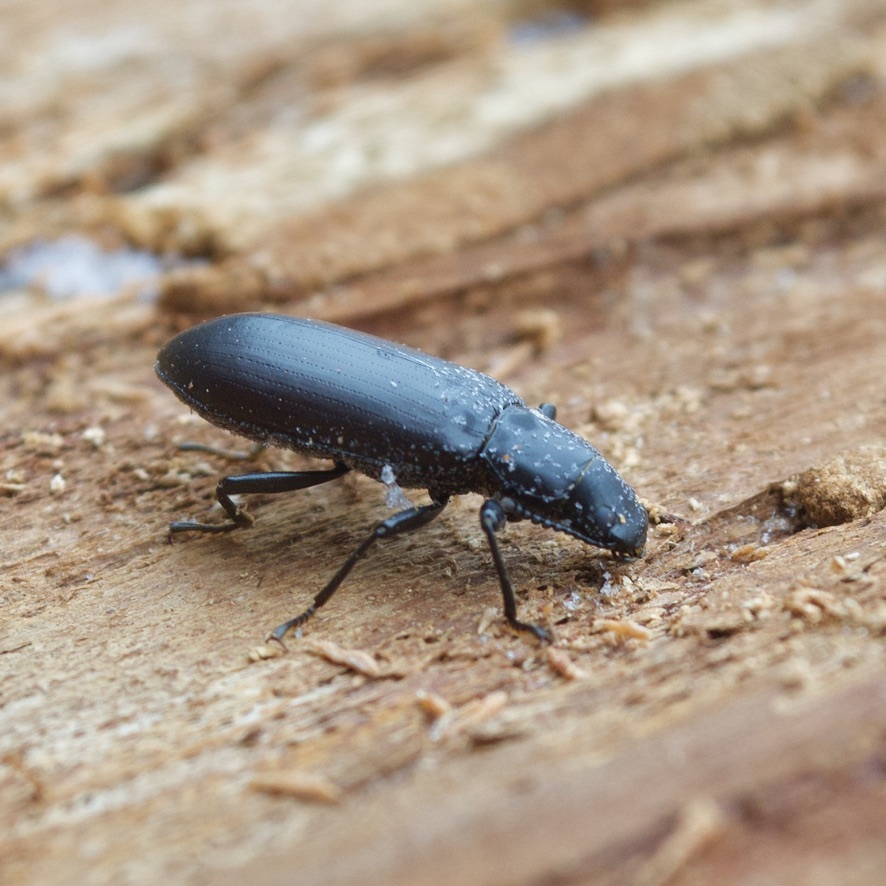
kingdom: Animalia
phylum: Arthropoda
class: Insecta
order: Coleoptera
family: Tenebrionidae
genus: Alobates
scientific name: Alobates pensylvanicus
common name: False mealworm beetle
